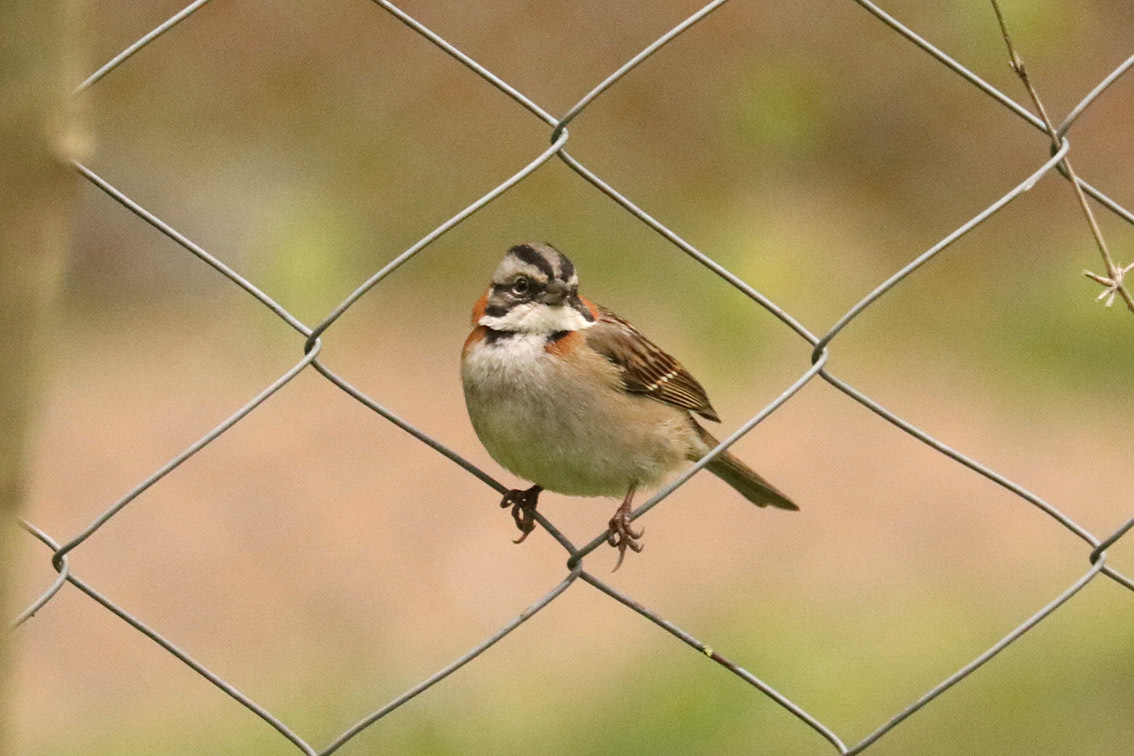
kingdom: Animalia
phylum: Chordata
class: Aves
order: Passeriformes
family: Passerellidae
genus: Zonotrichia
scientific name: Zonotrichia capensis
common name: Rufous-collared sparrow
